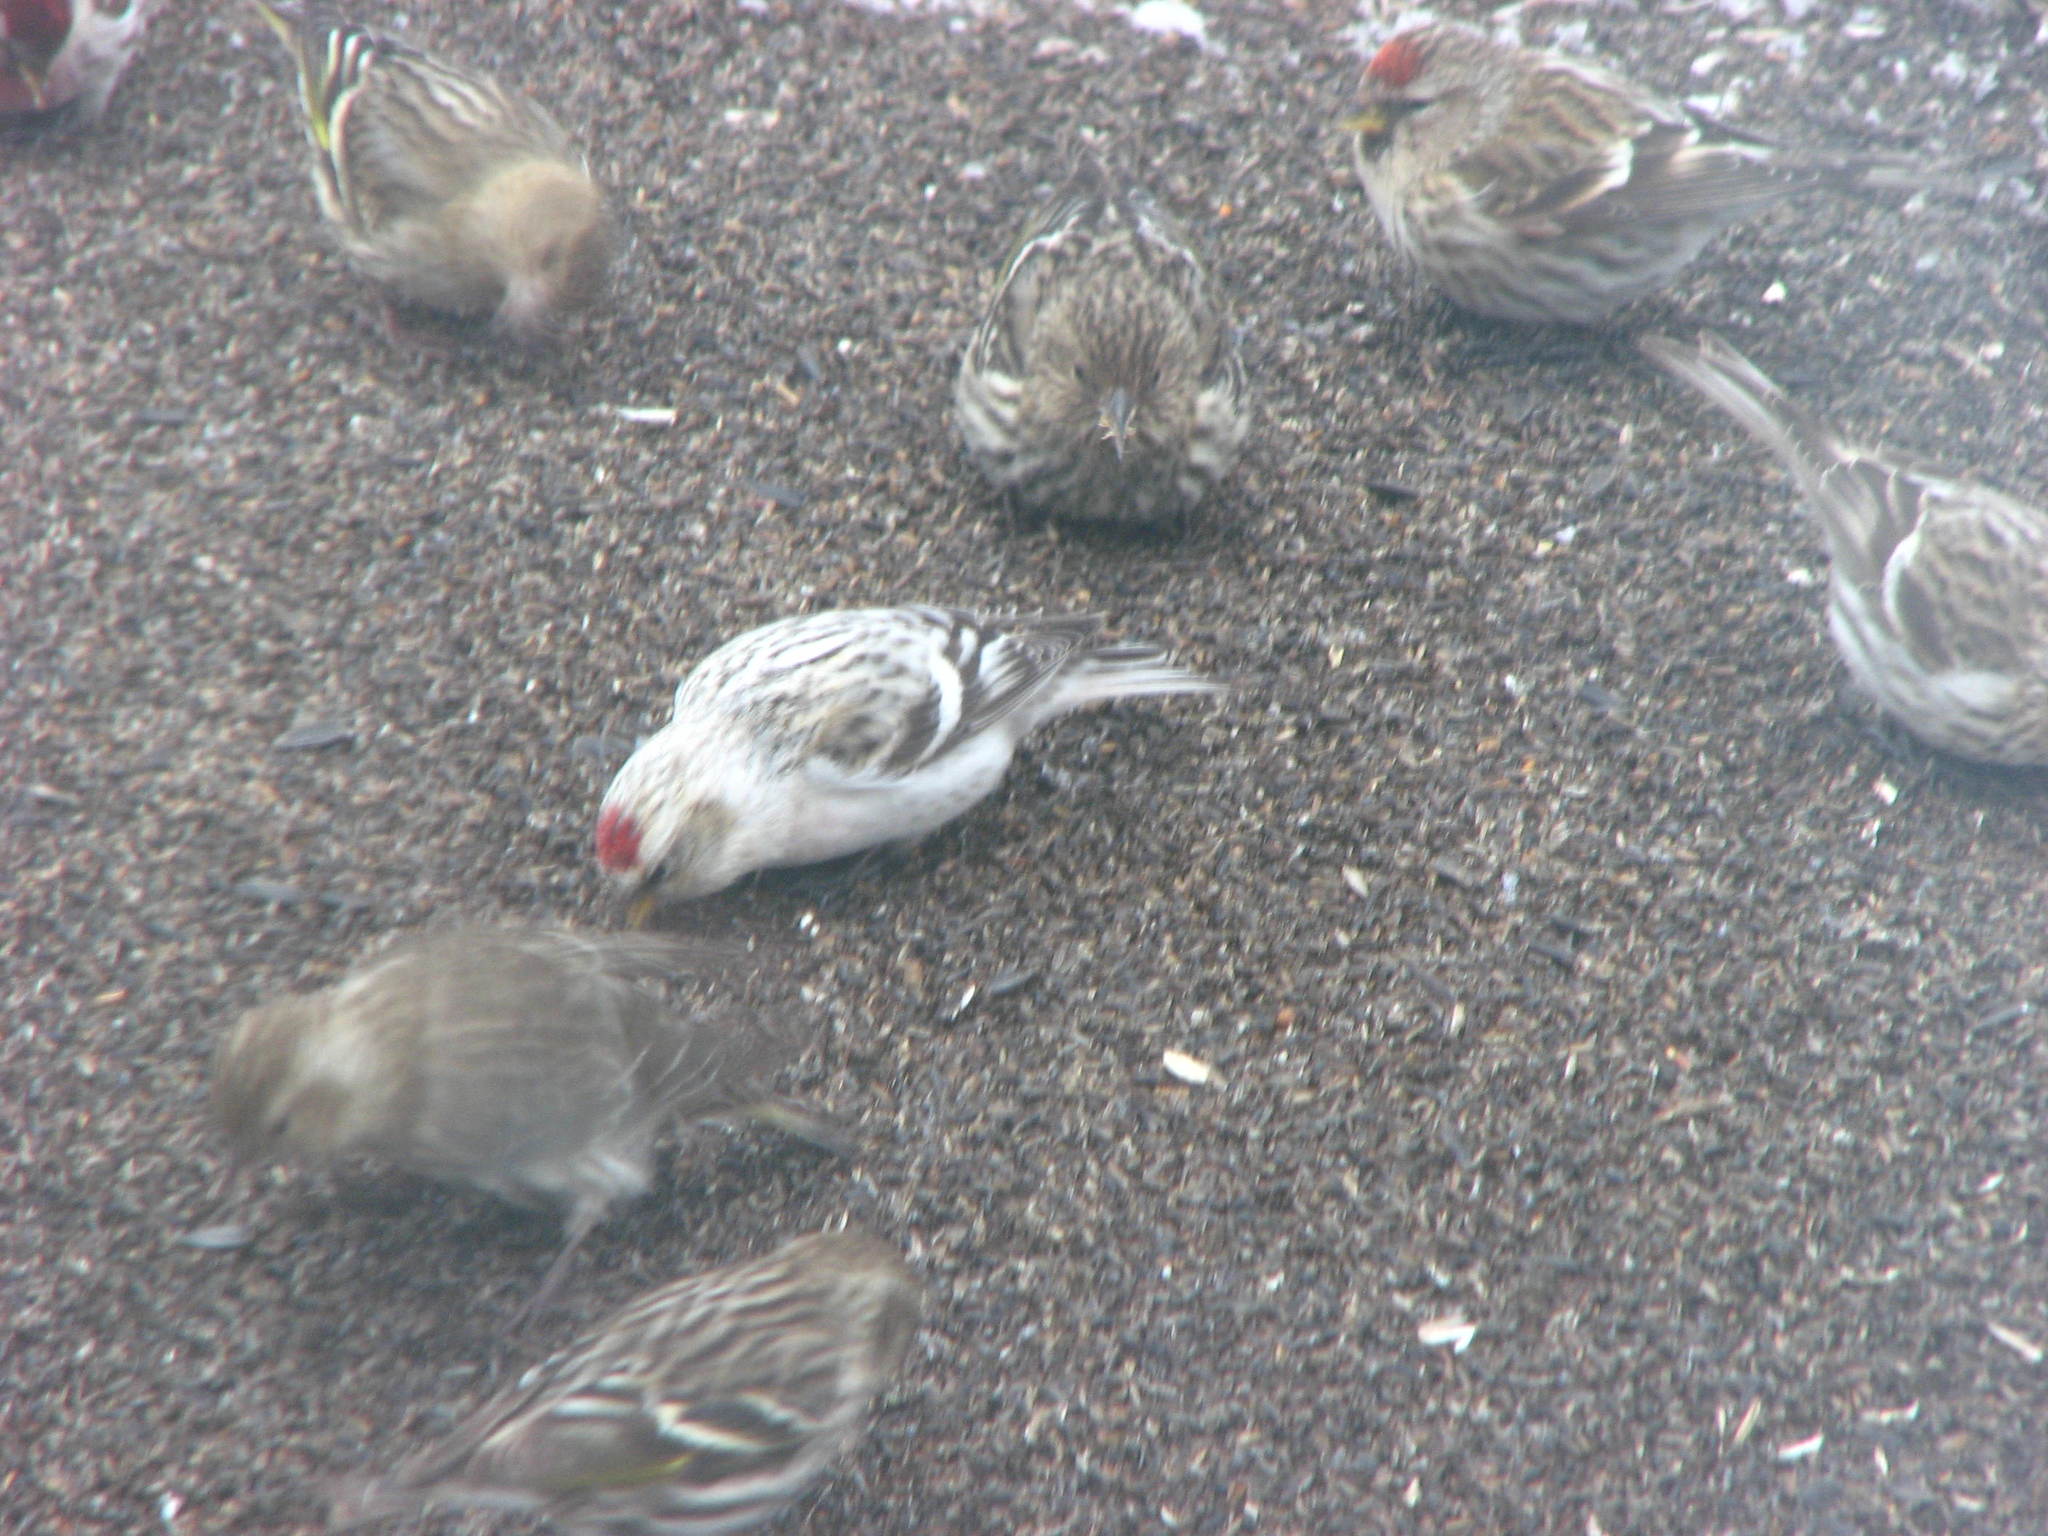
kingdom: Animalia
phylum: Chordata
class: Aves
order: Passeriformes
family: Fringillidae
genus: Acanthis
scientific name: Acanthis hornemanni
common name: Arctic redpoll
